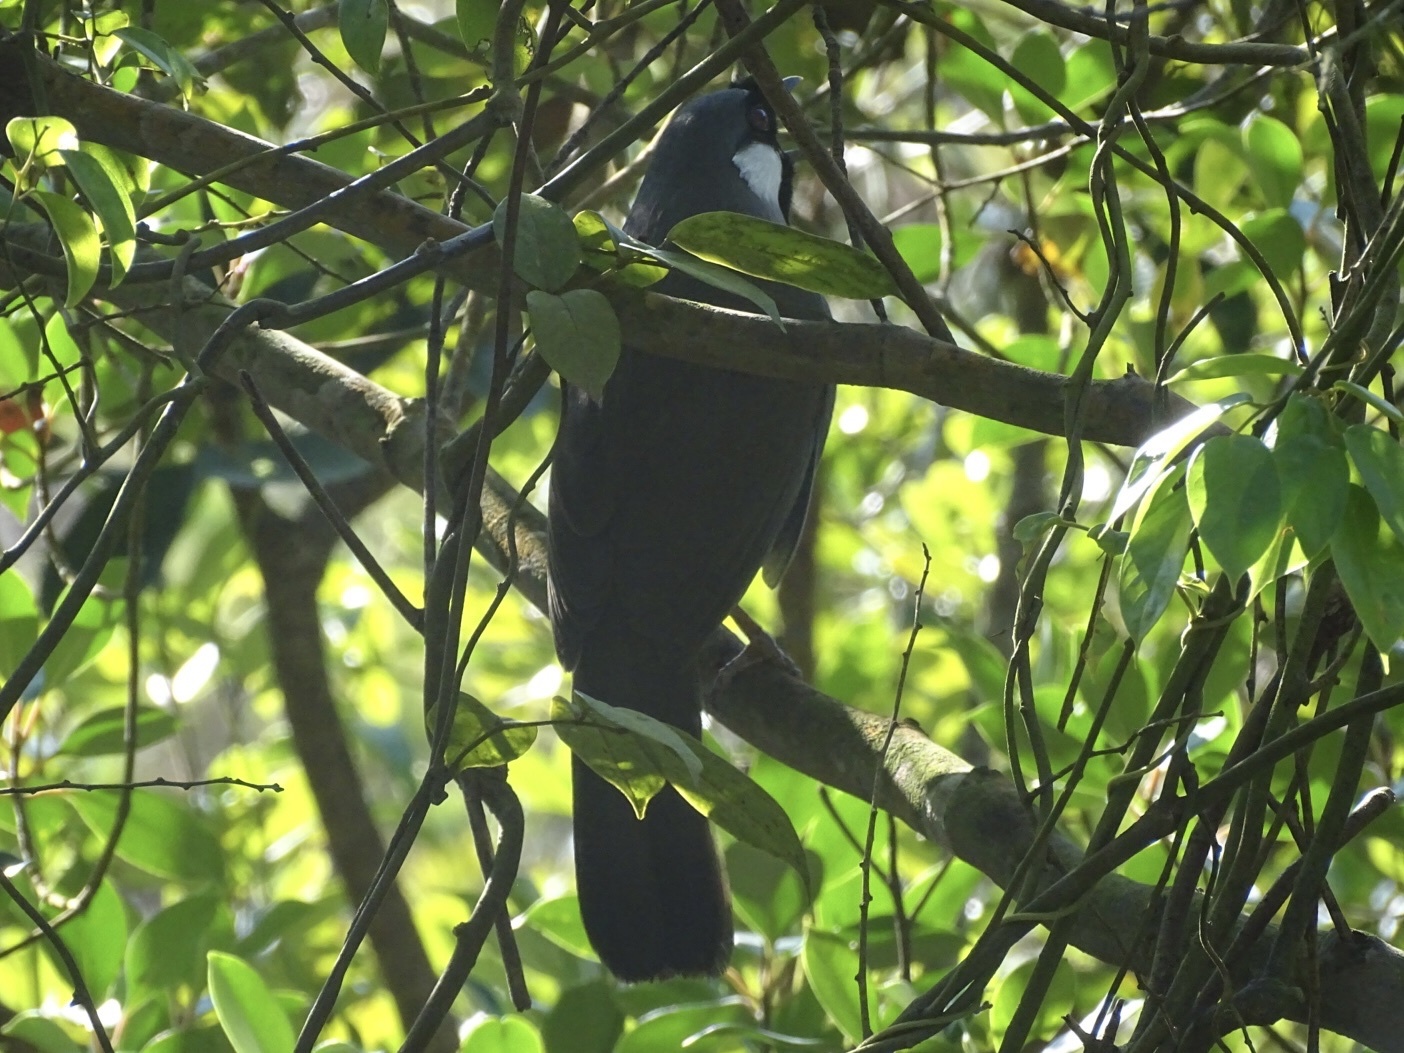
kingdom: Animalia
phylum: Chordata
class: Aves
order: Passeriformes
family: Leiothrichidae
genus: Garrulax
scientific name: Garrulax chinensis
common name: Black-throated laughingthrush
